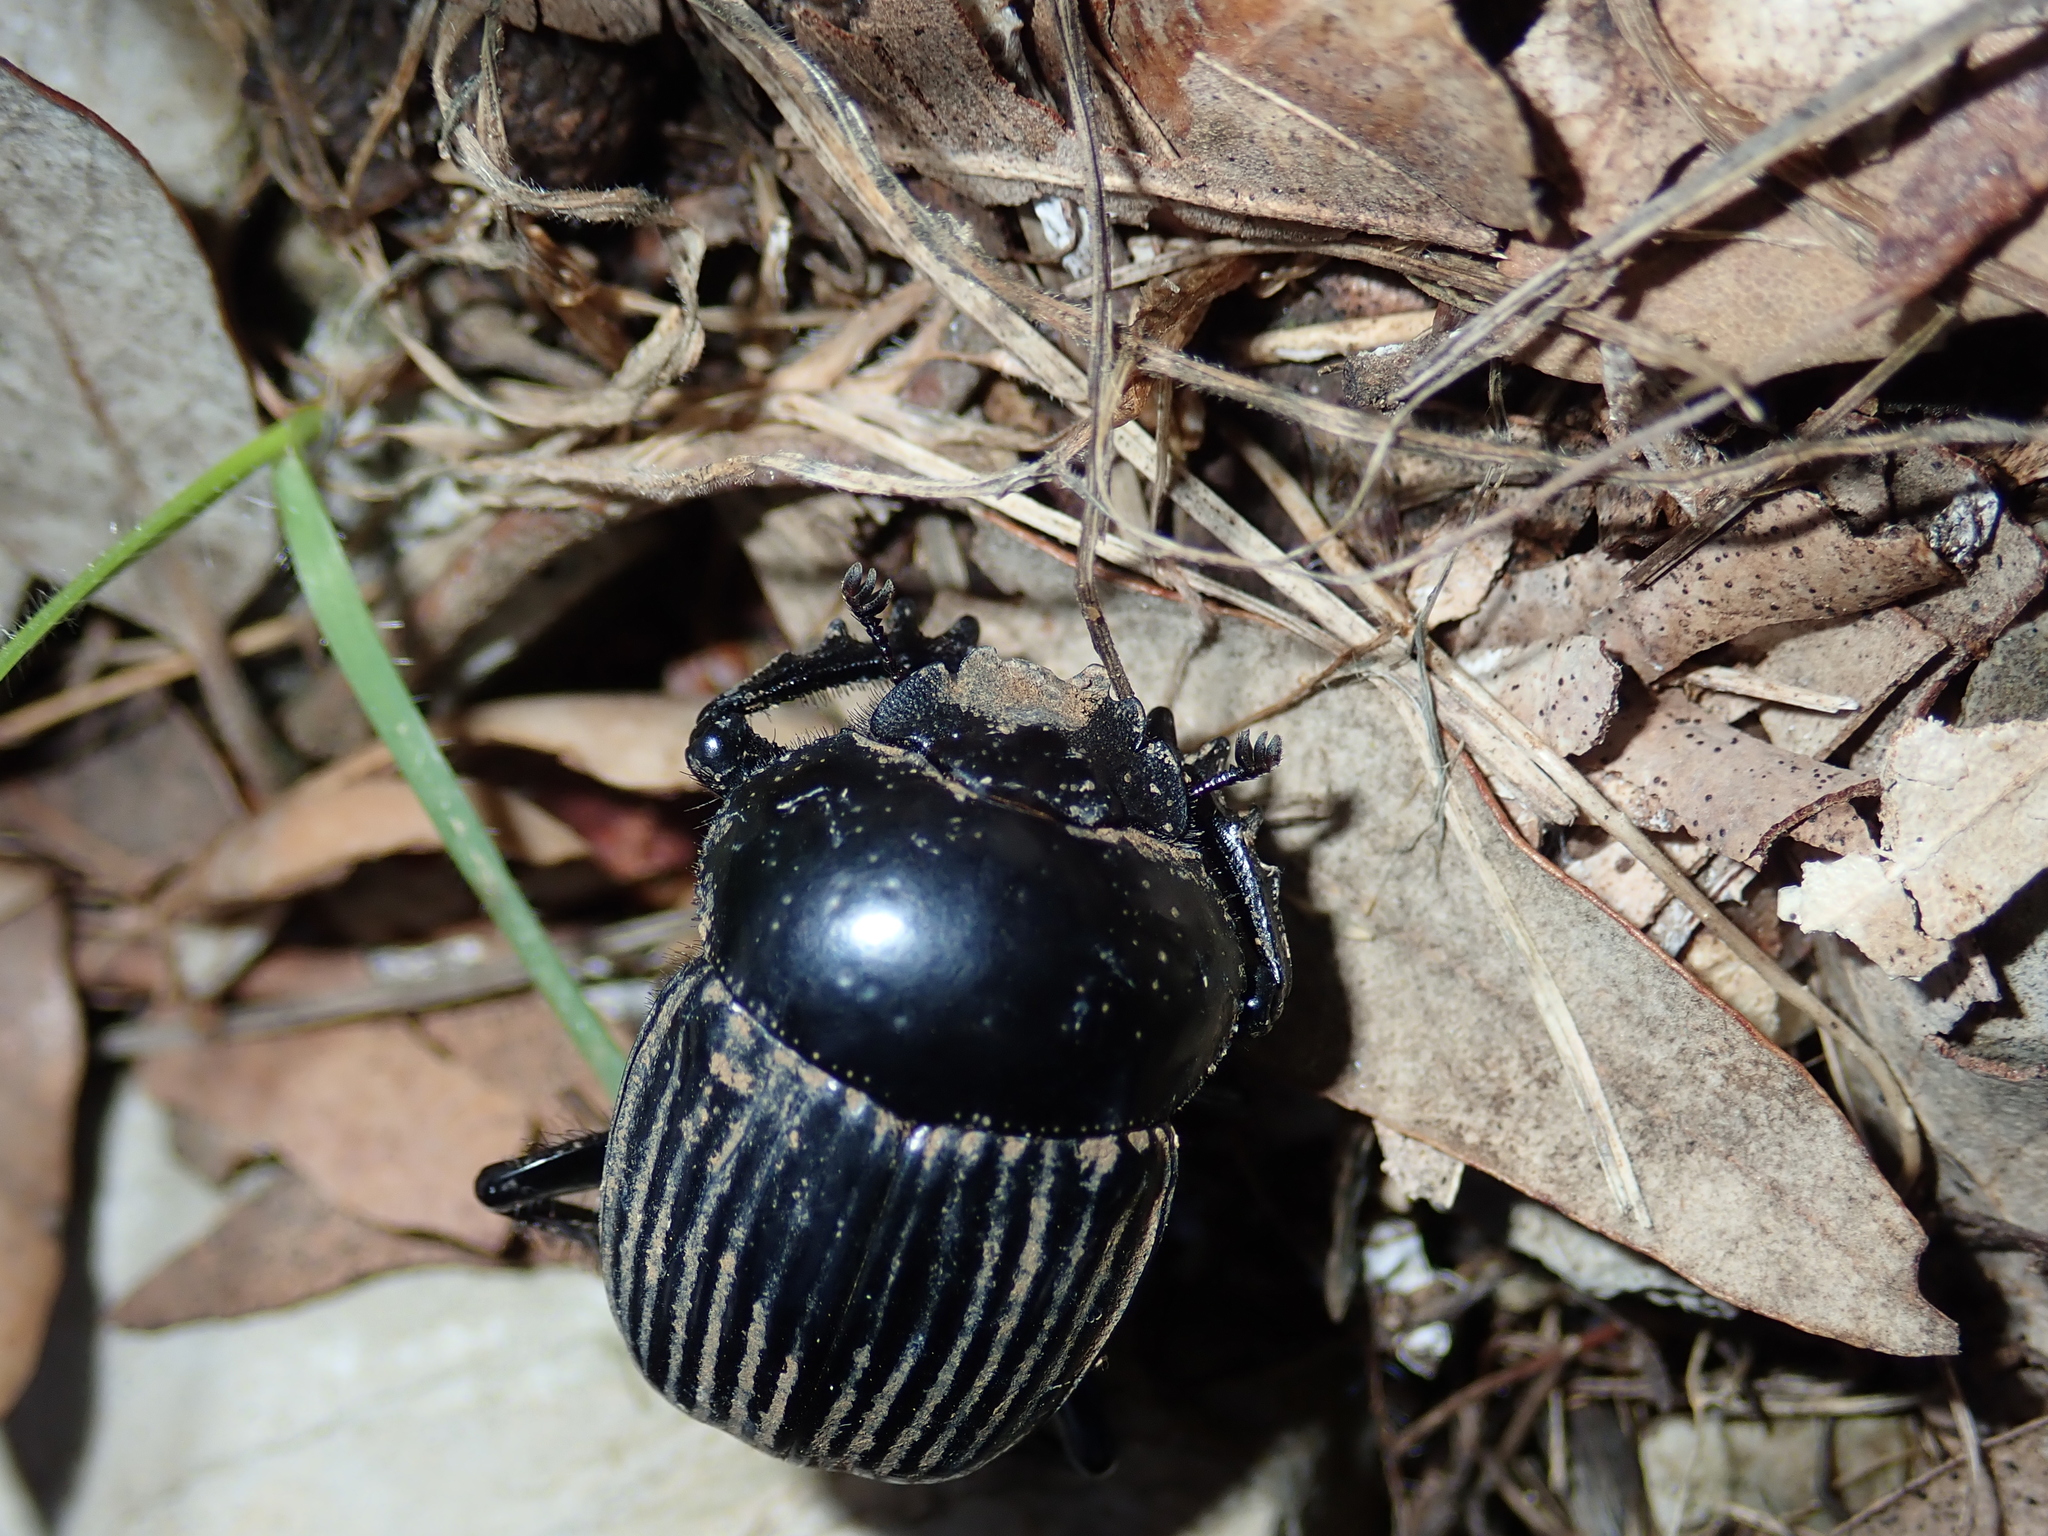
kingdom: Animalia
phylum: Arthropoda
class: Insecta
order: Coleoptera
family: Scarabaeidae
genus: Ateuchetus
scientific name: Ateuchetus laticollis
